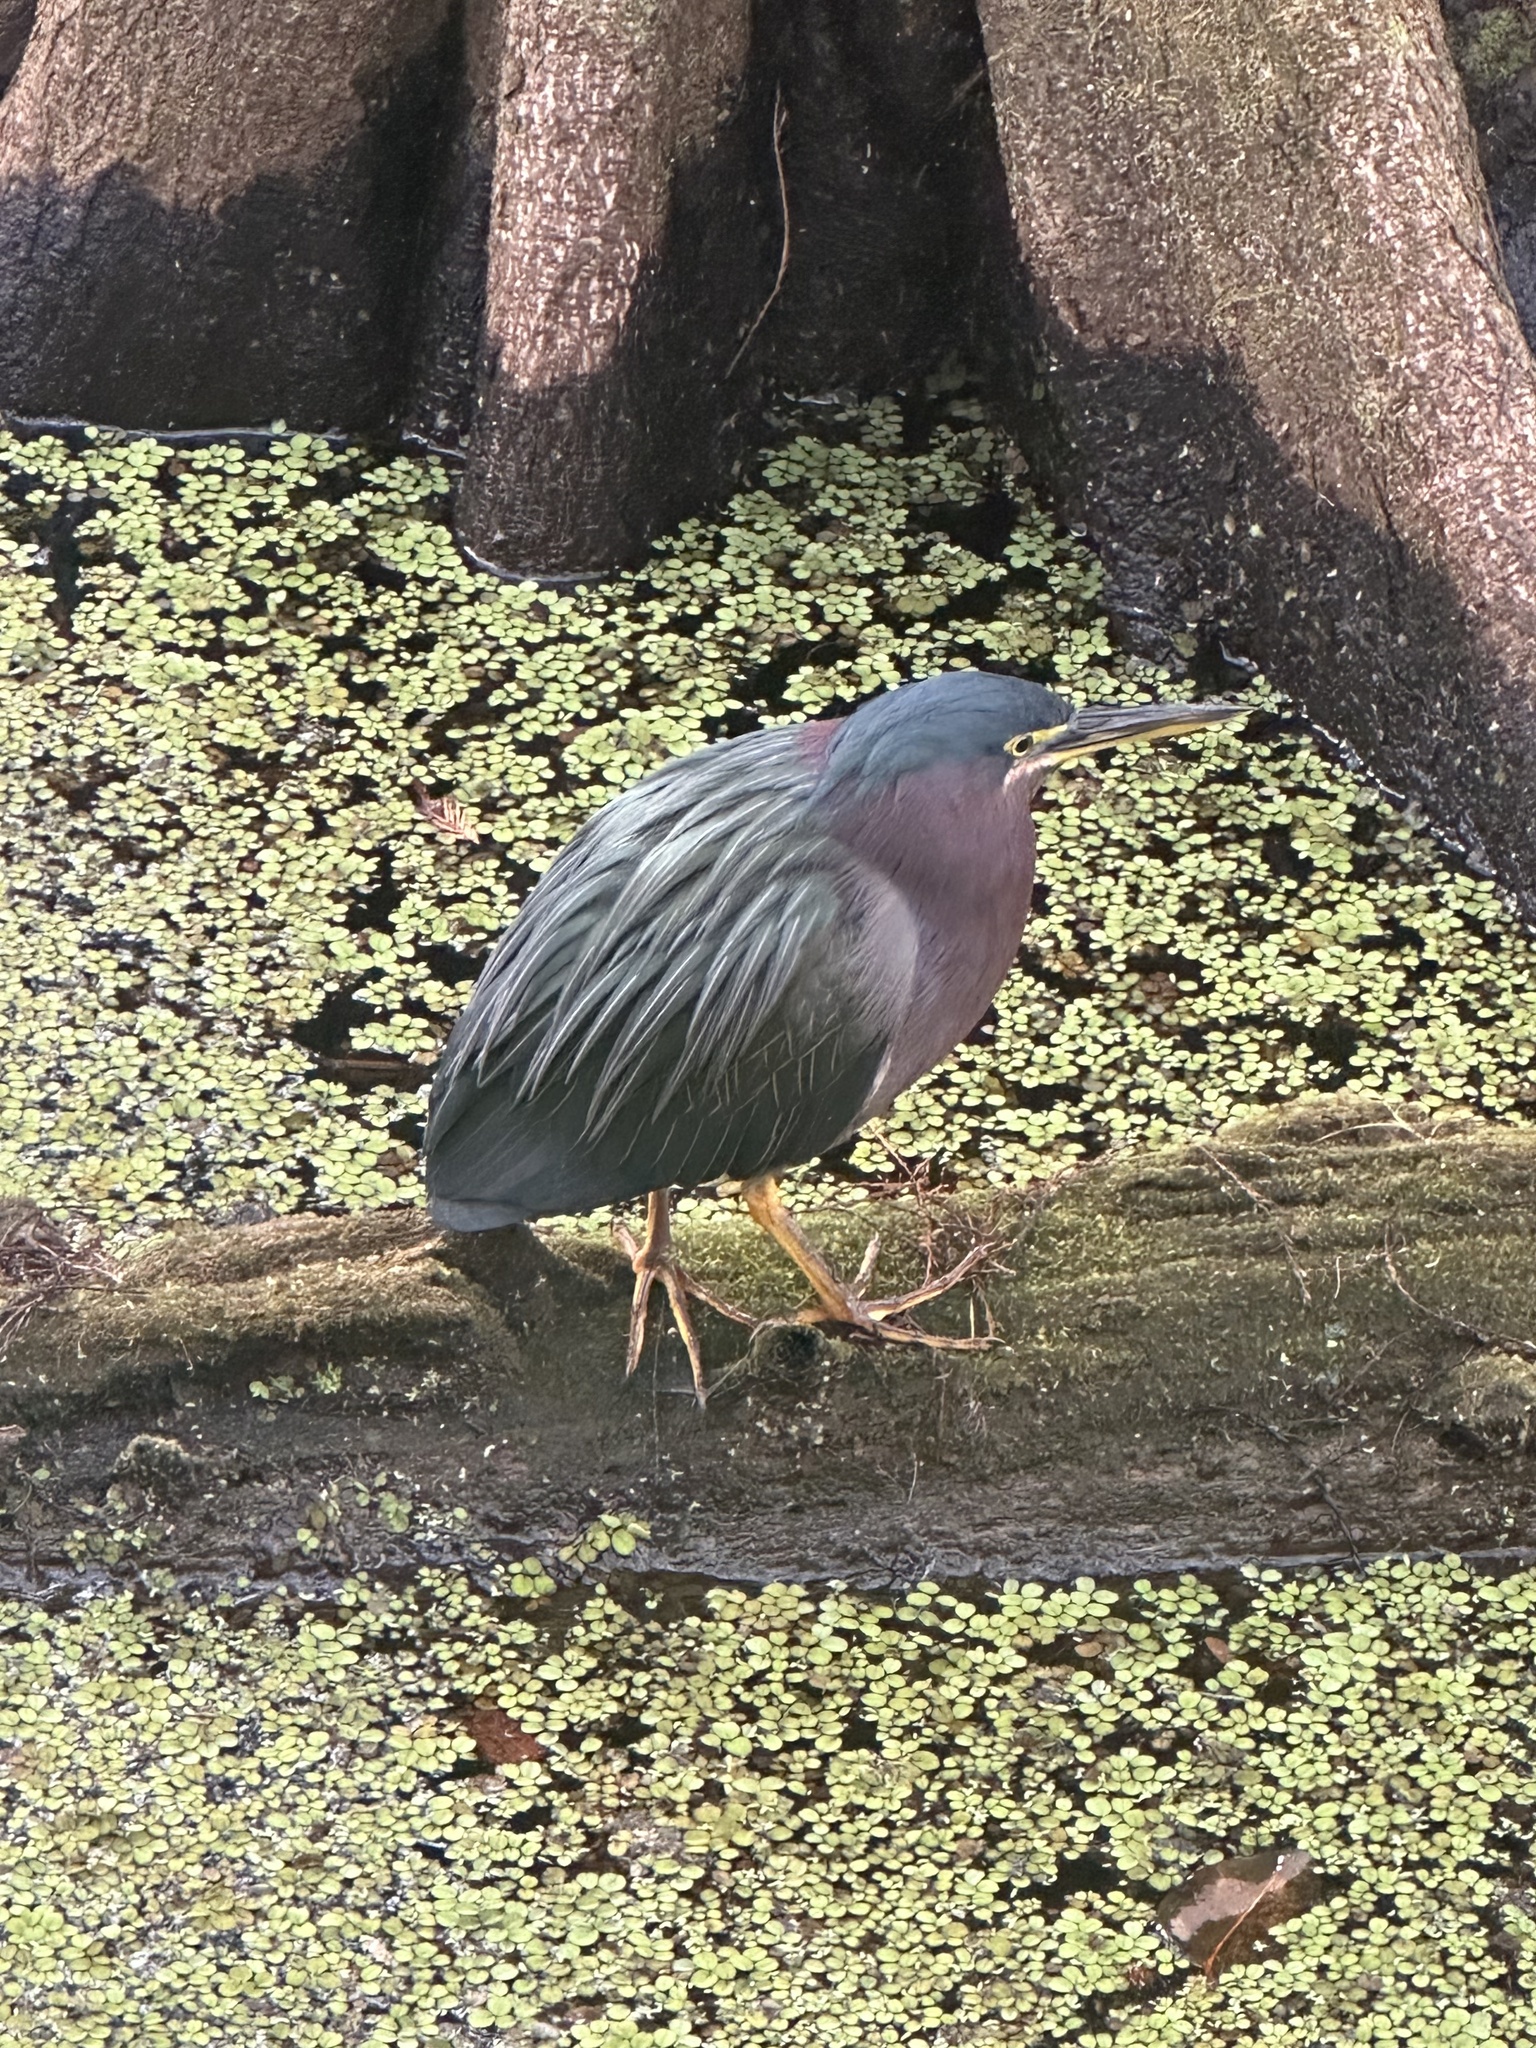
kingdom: Animalia
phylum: Chordata
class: Aves
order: Pelecaniformes
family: Ardeidae
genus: Butorides
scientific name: Butorides virescens
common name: Green heron
